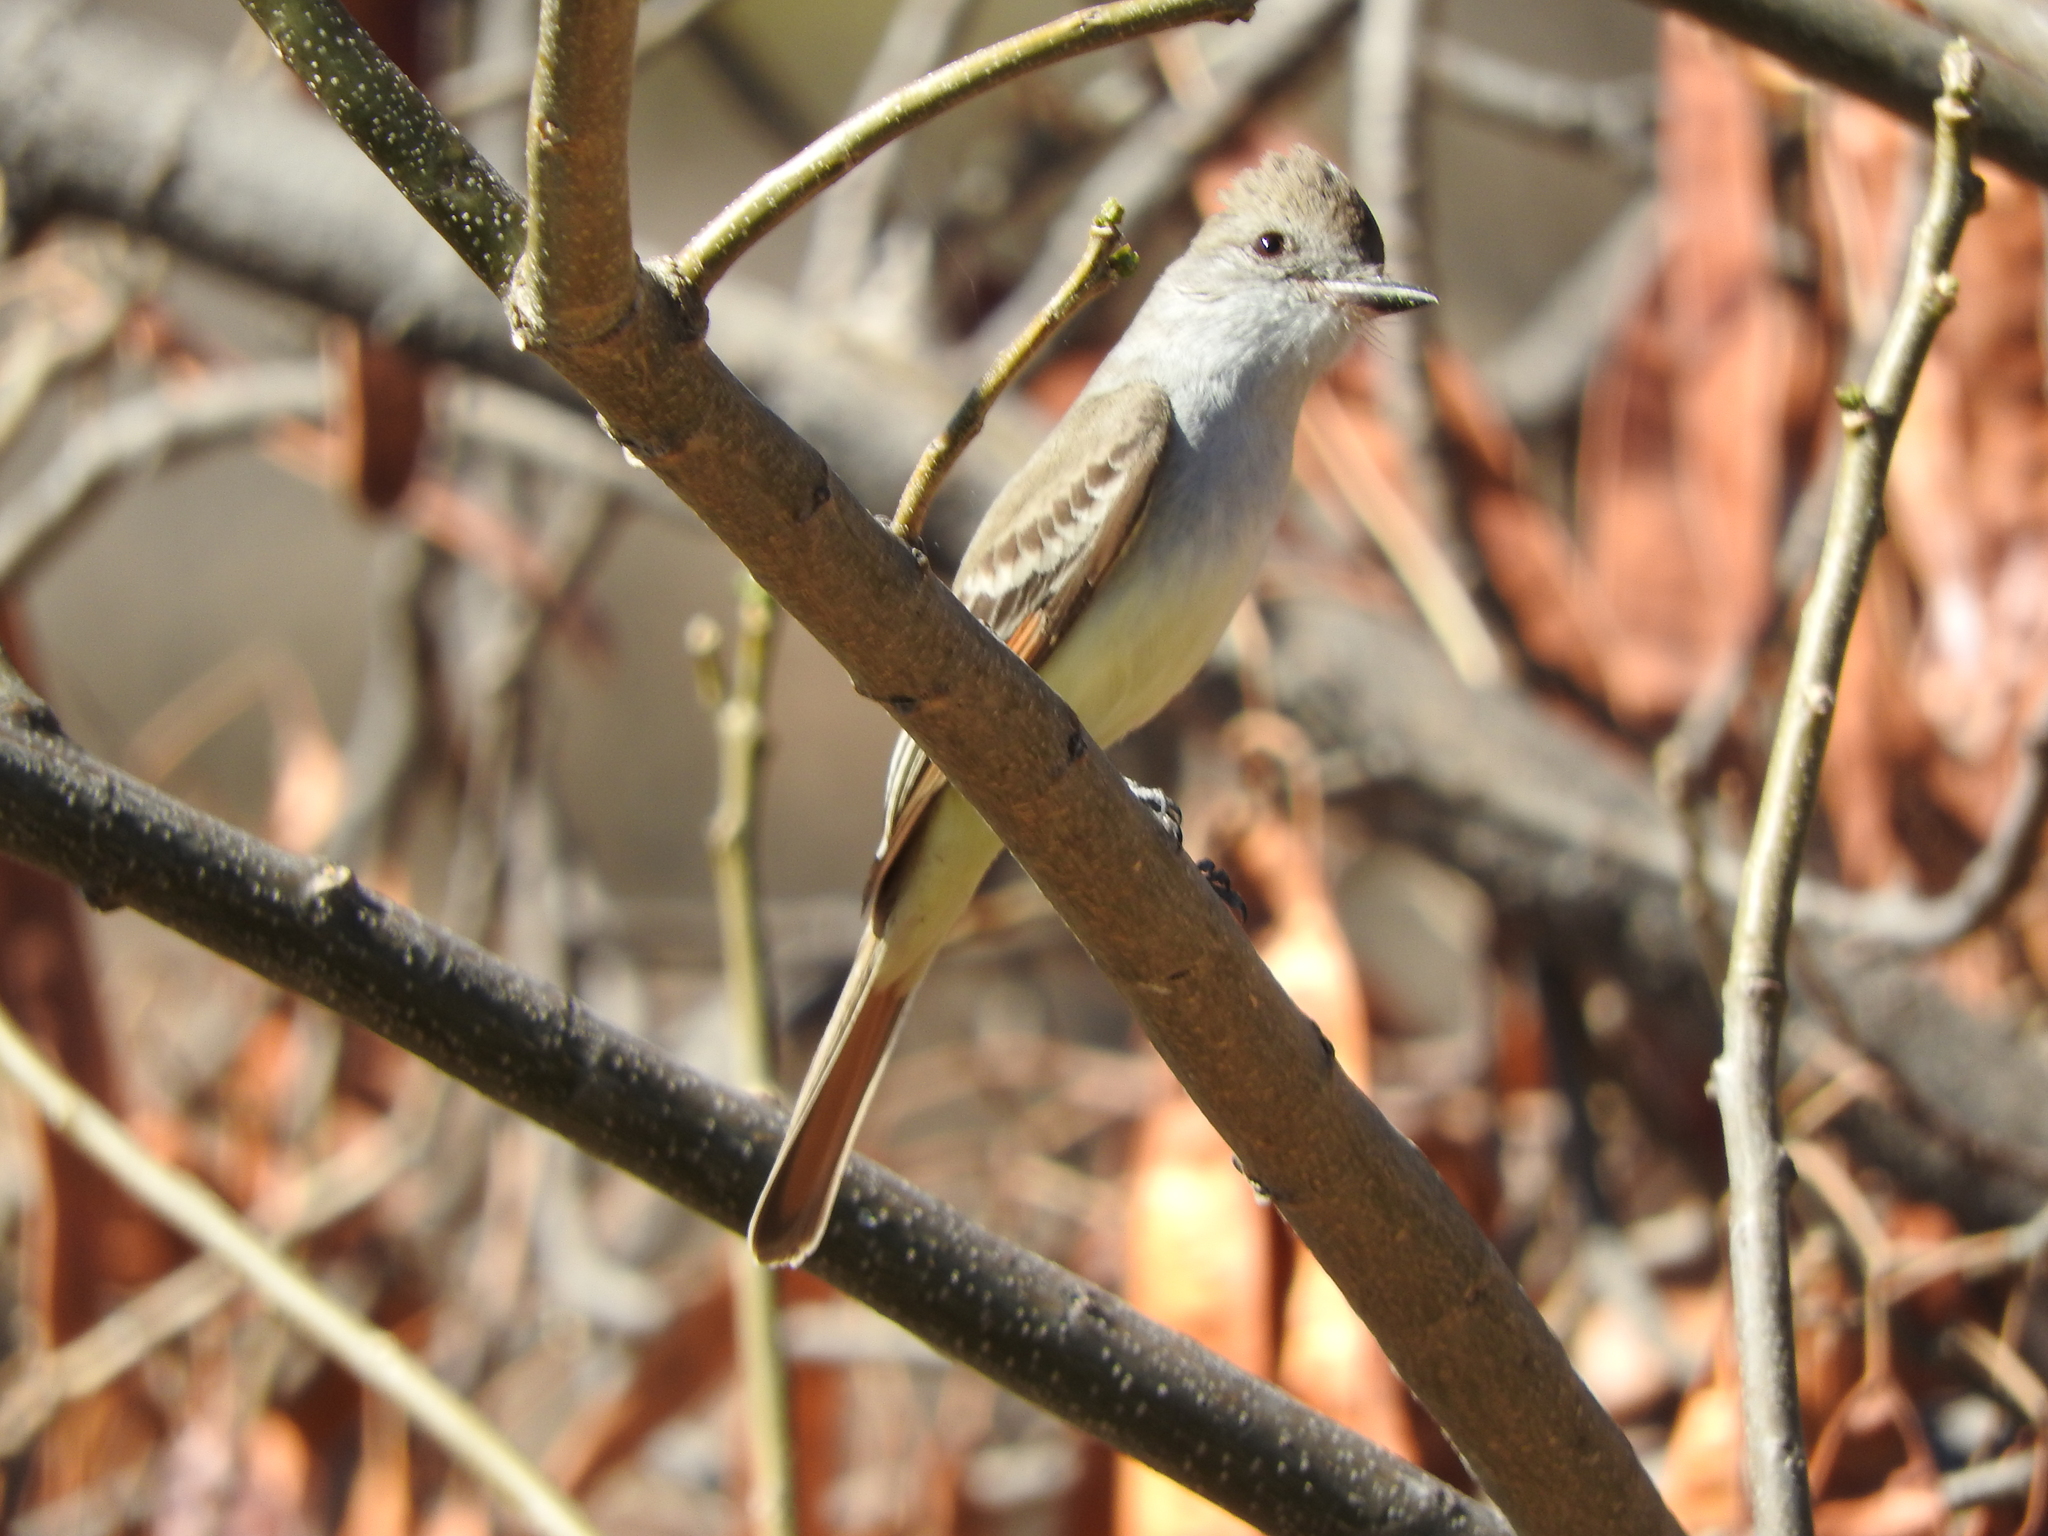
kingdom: Animalia
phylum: Chordata
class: Aves
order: Passeriformes
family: Tyrannidae
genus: Myiarchus
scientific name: Myiarchus cinerascens
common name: Ash-throated flycatcher
